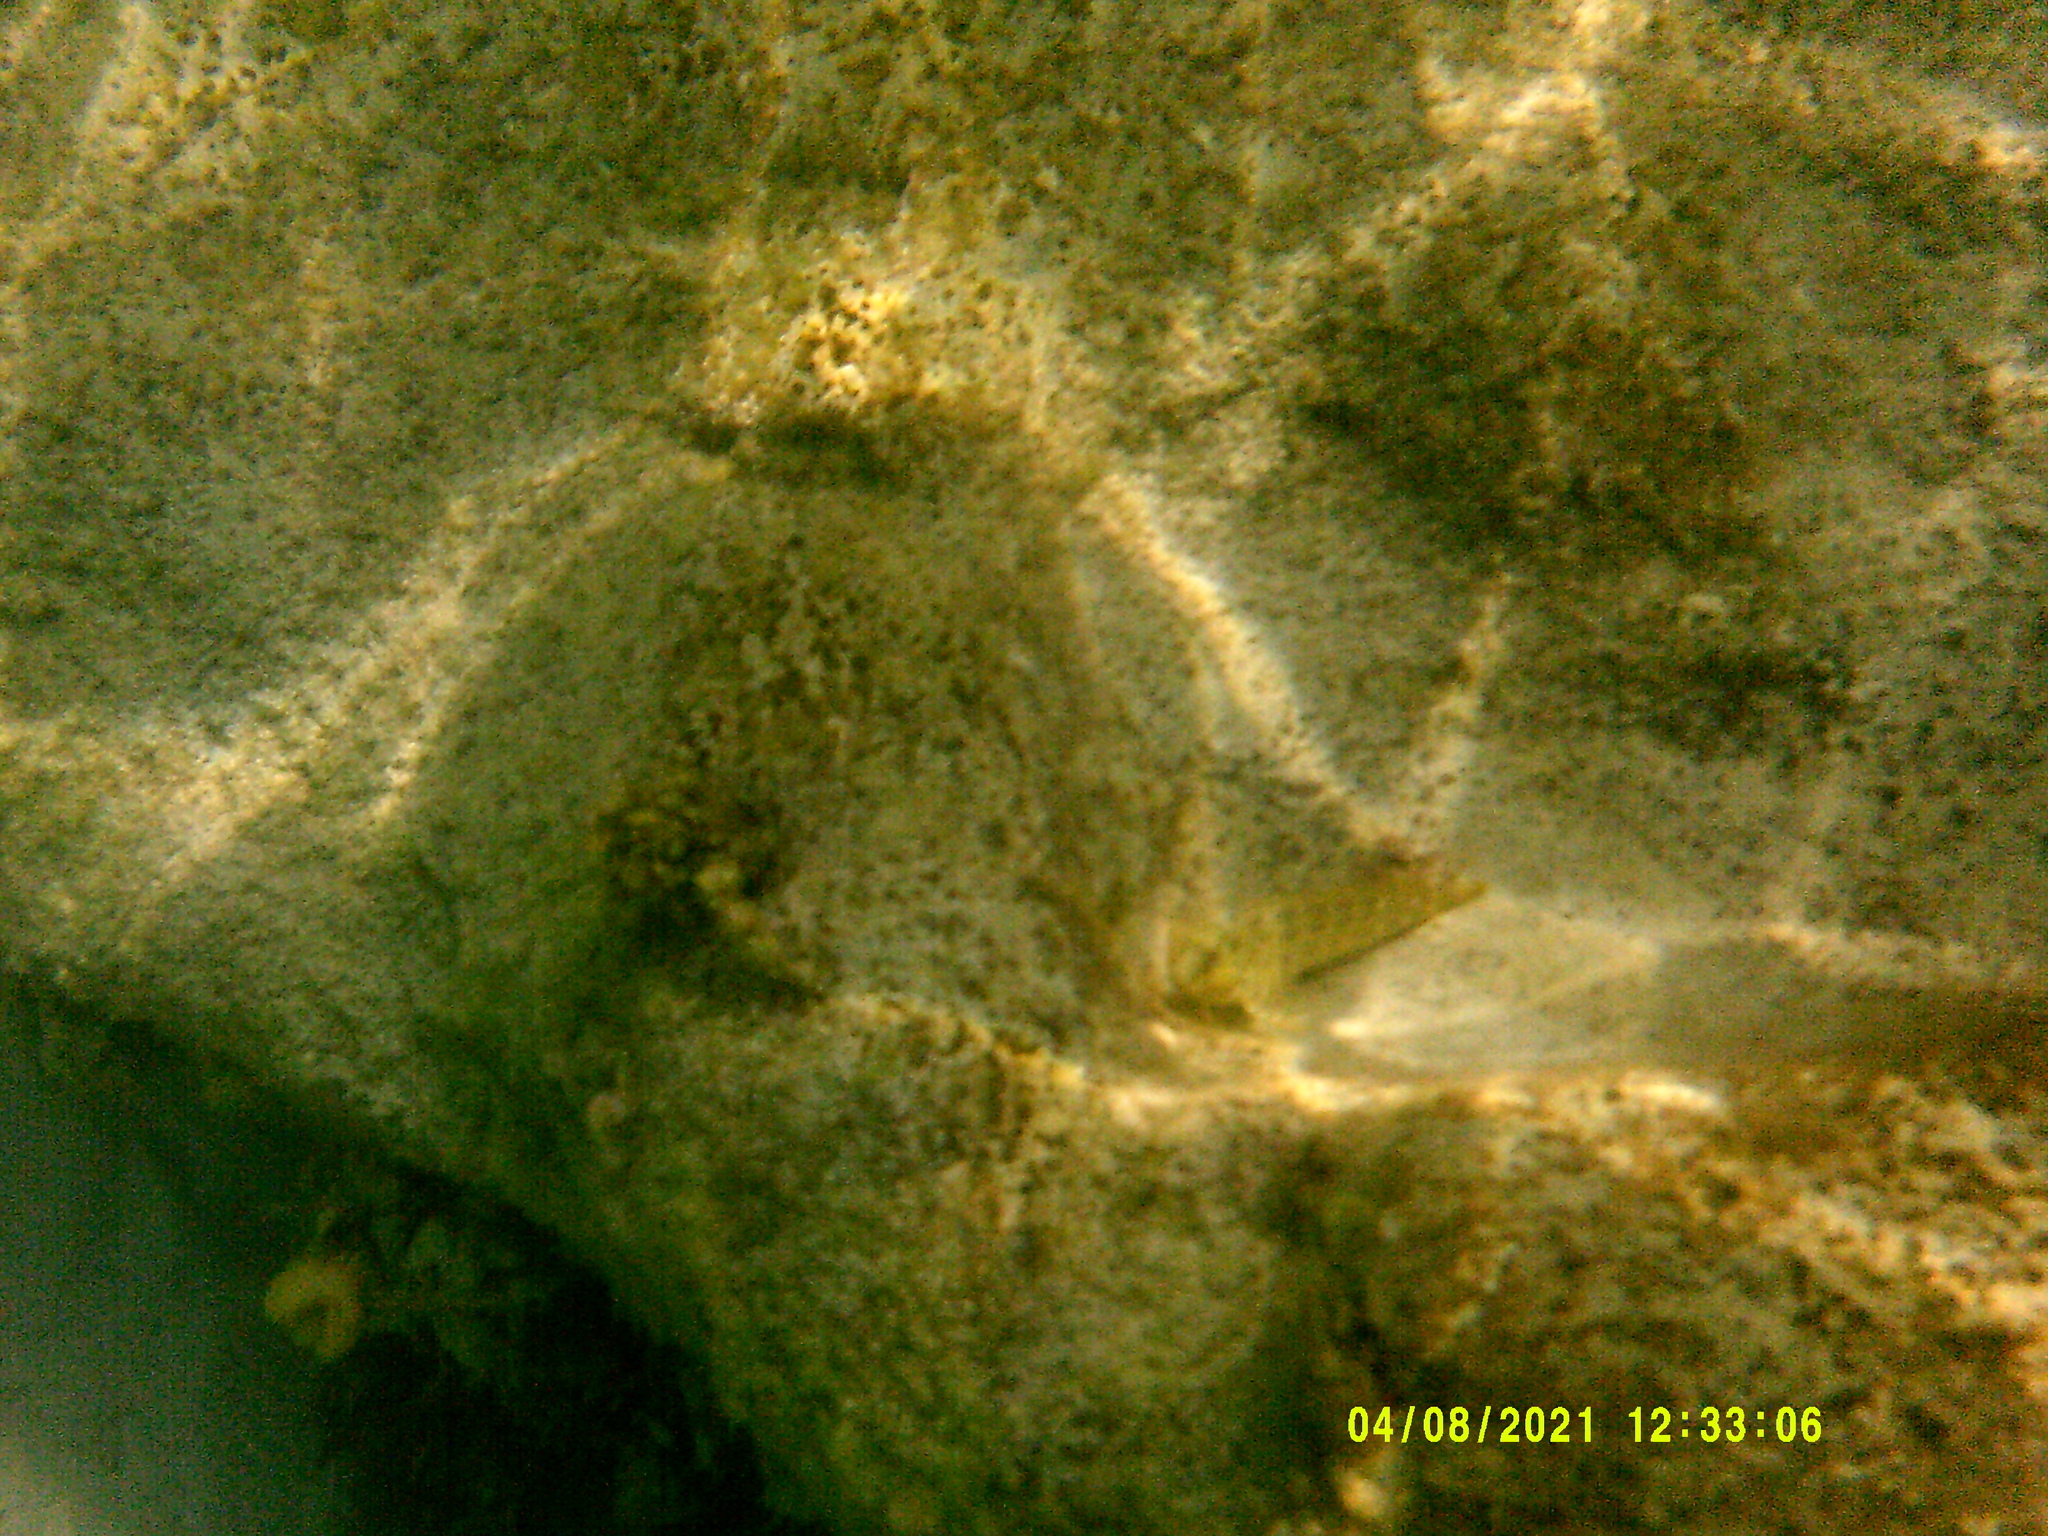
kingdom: Animalia
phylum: Chordata
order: Perciformes
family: Blenniidae
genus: Parablennius
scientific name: Parablennius sanguinolentus
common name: Black sea blenny
